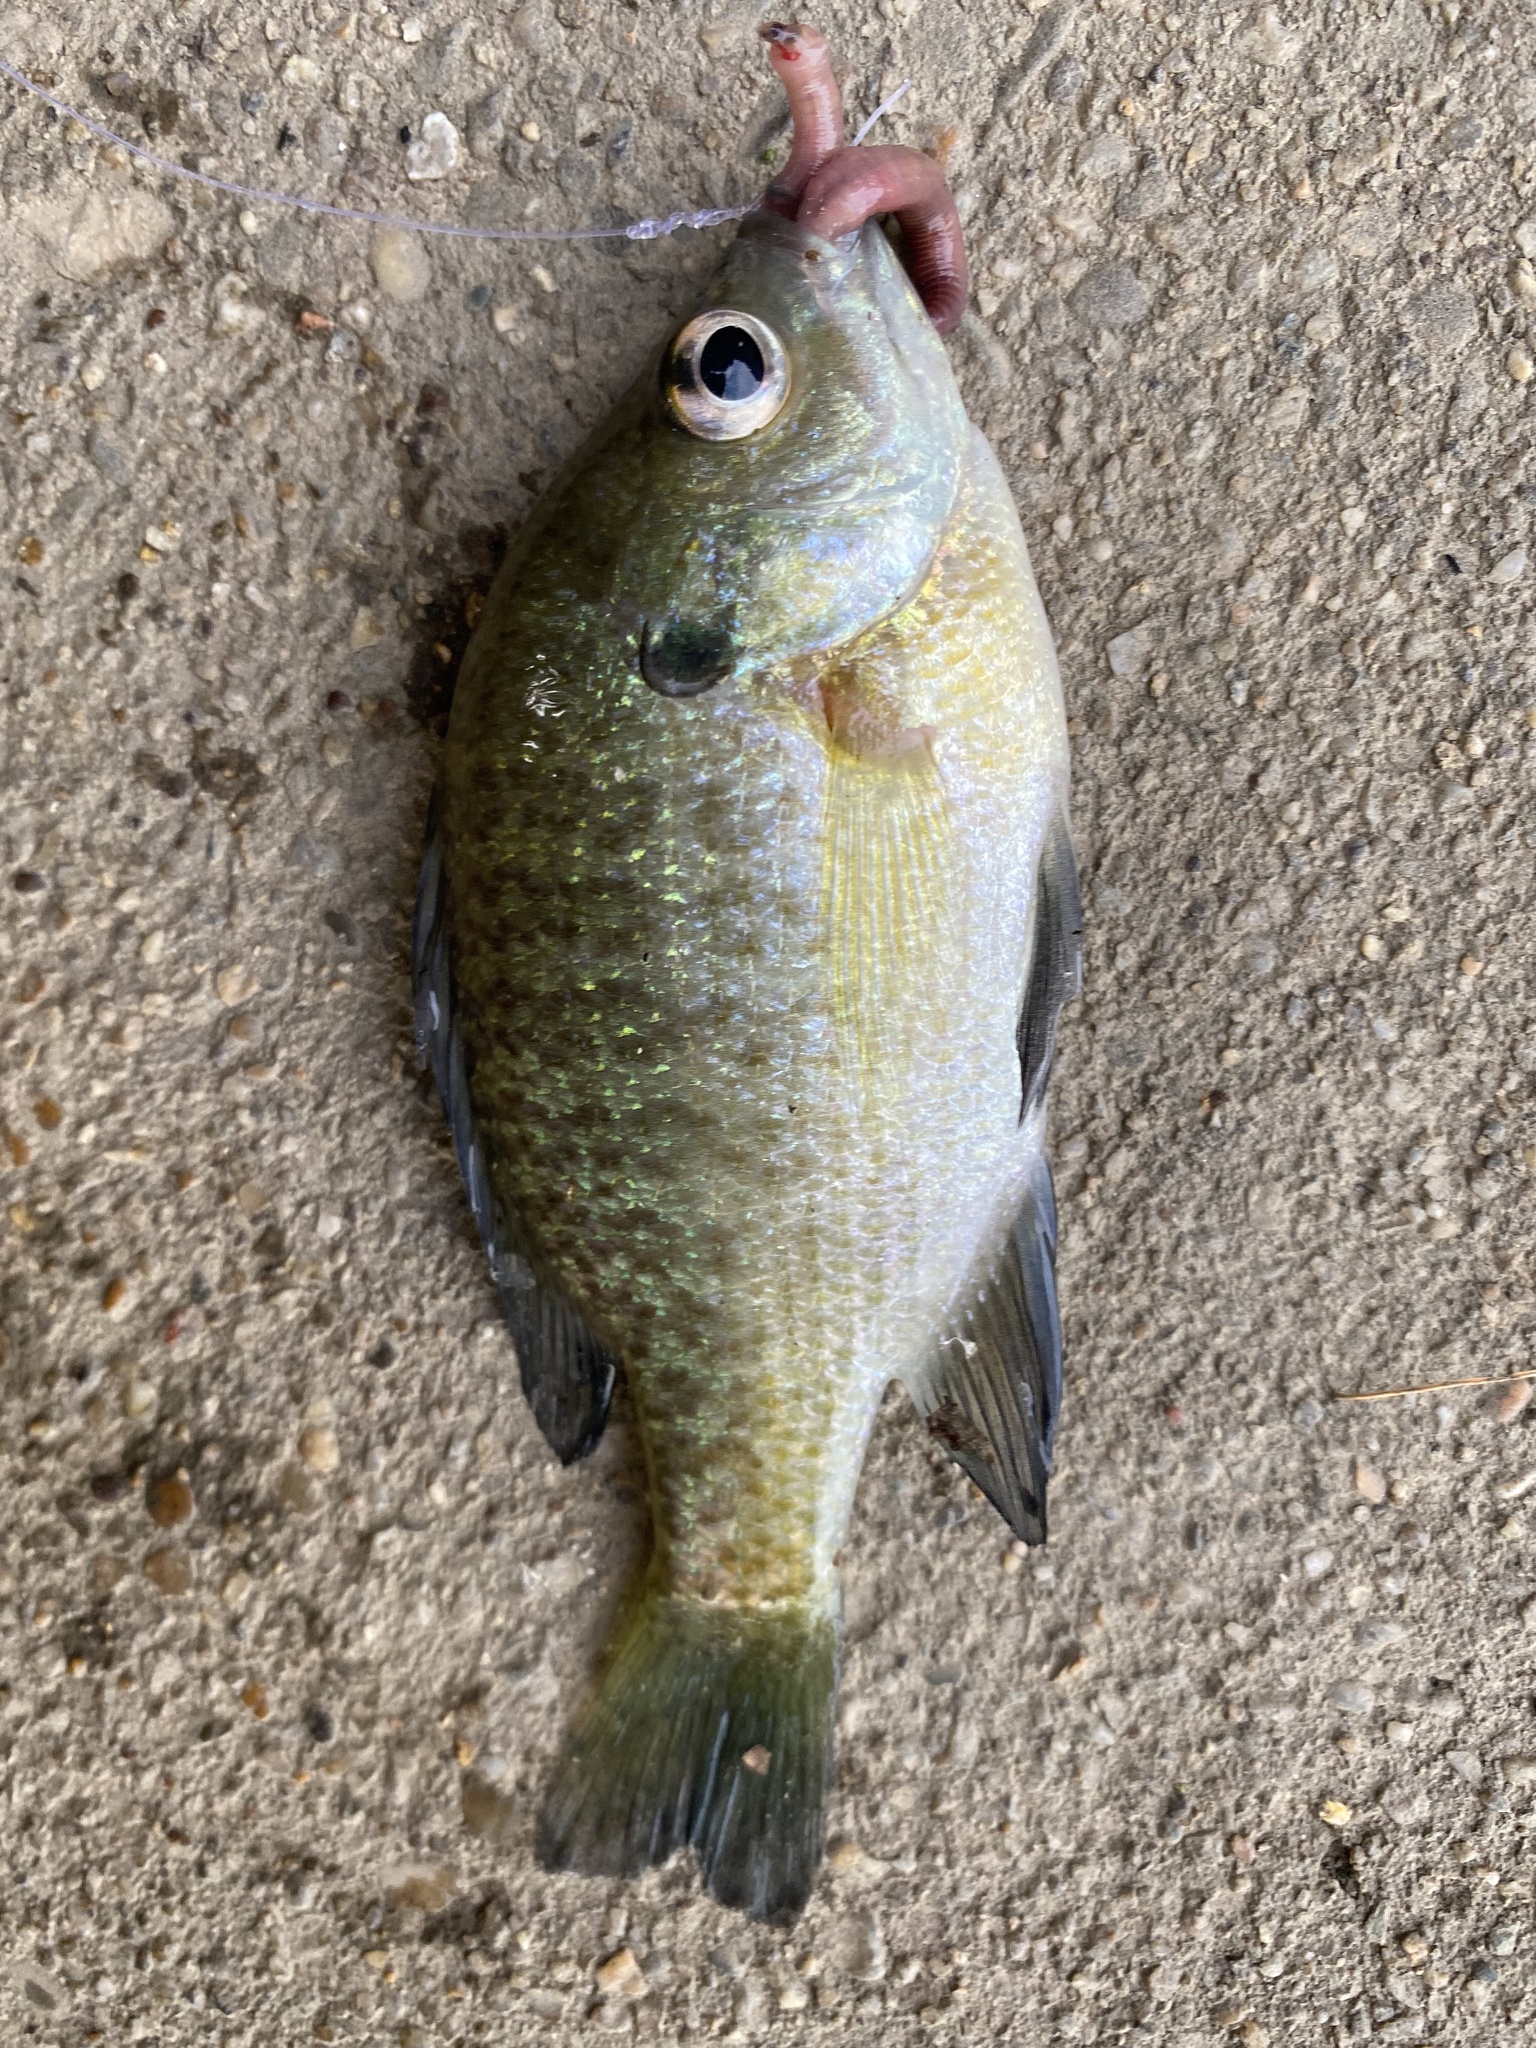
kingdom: Animalia
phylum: Chordata
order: Perciformes
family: Centrarchidae
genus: Lepomis
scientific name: Lepomis macrochirus
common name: Bluegill
